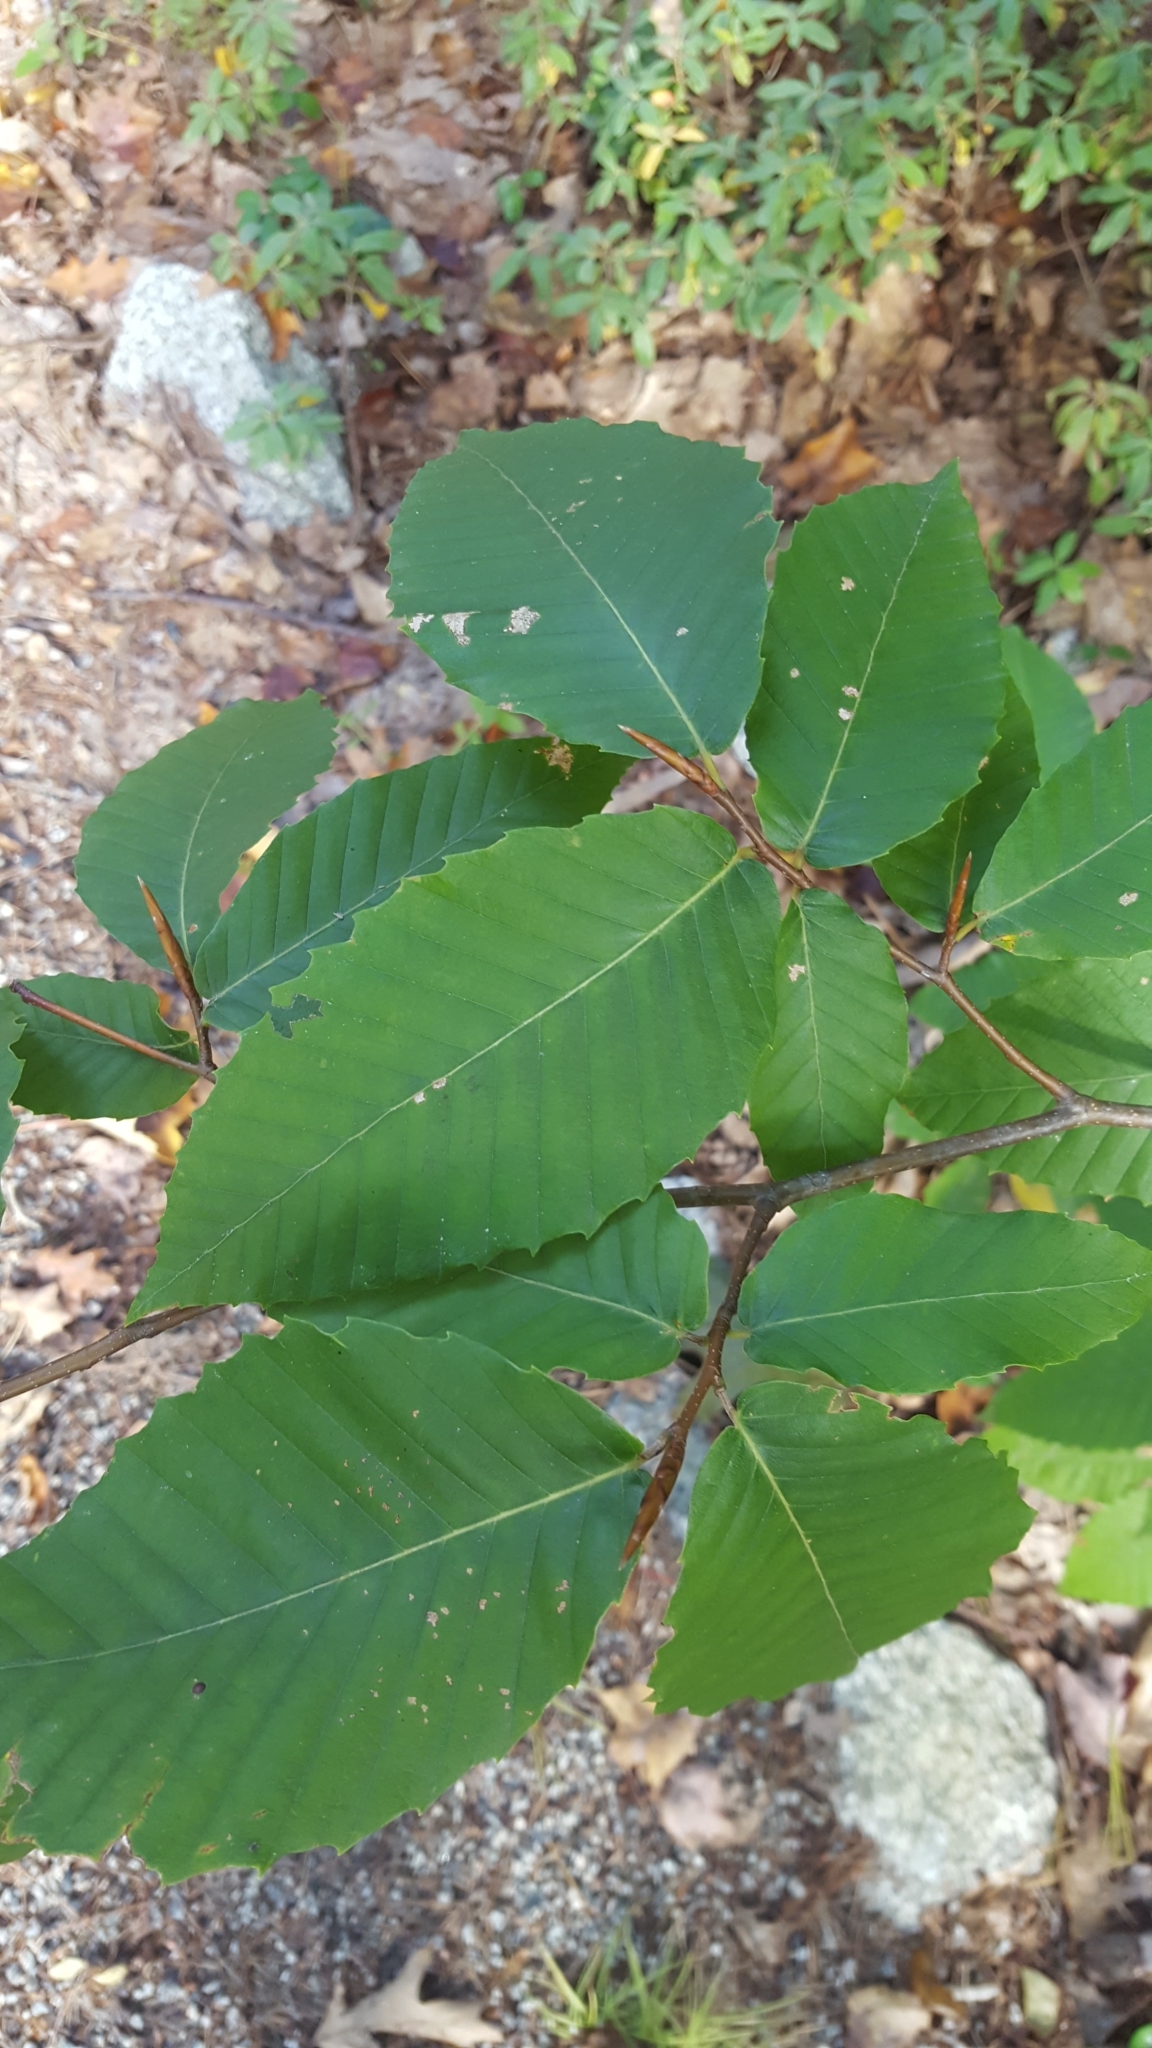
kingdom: Plantae
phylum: Tracheophyta
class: Magnoliopsida
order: Fagales
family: Fagaceae
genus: Fagus
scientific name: Fagus grandifolia
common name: American beech
